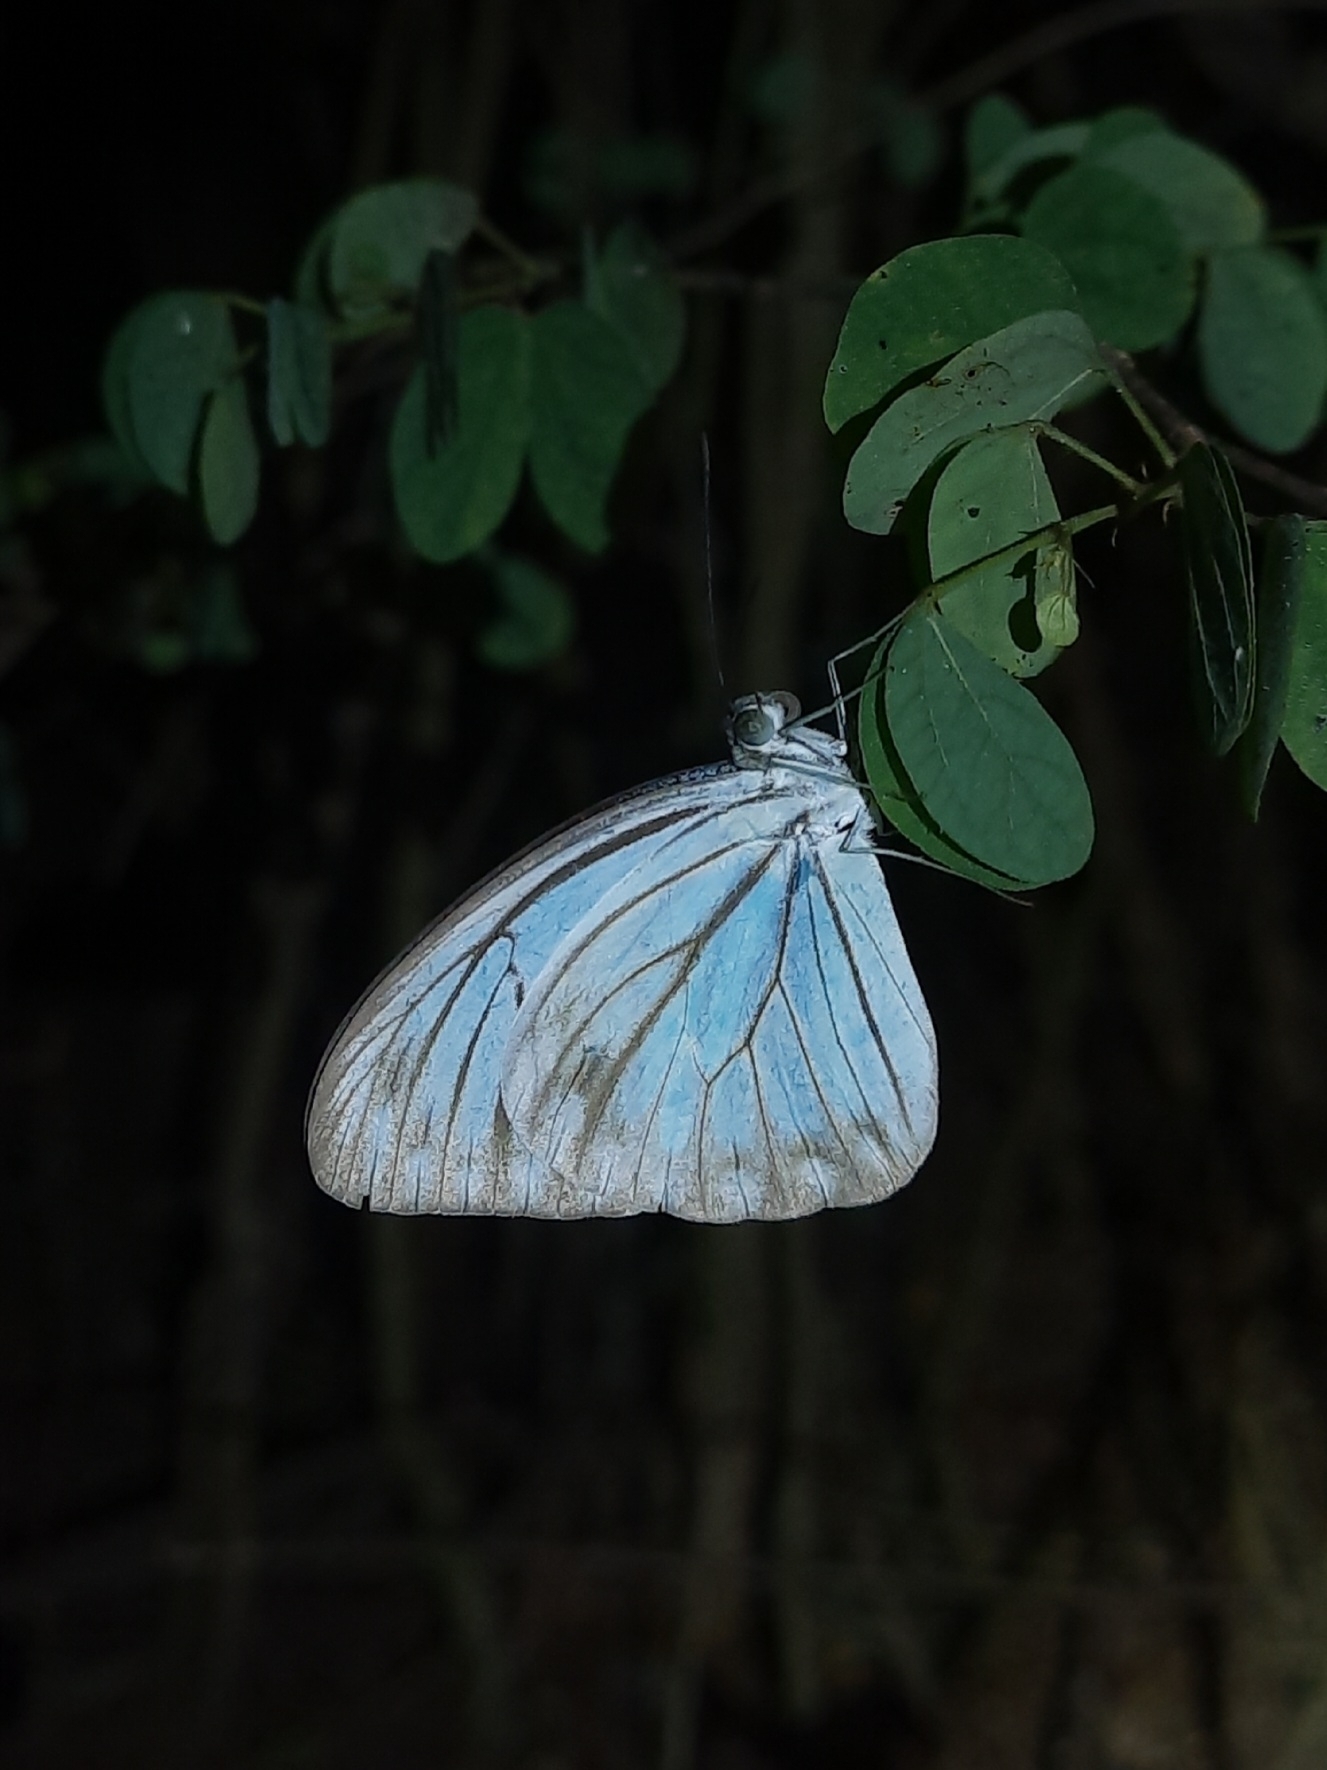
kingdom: Animalia
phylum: Arthropoda
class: Insecta
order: Lepidoptera
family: Pieridae
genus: Pareronia
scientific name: Pareronia hippia
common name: Indian wanderer
